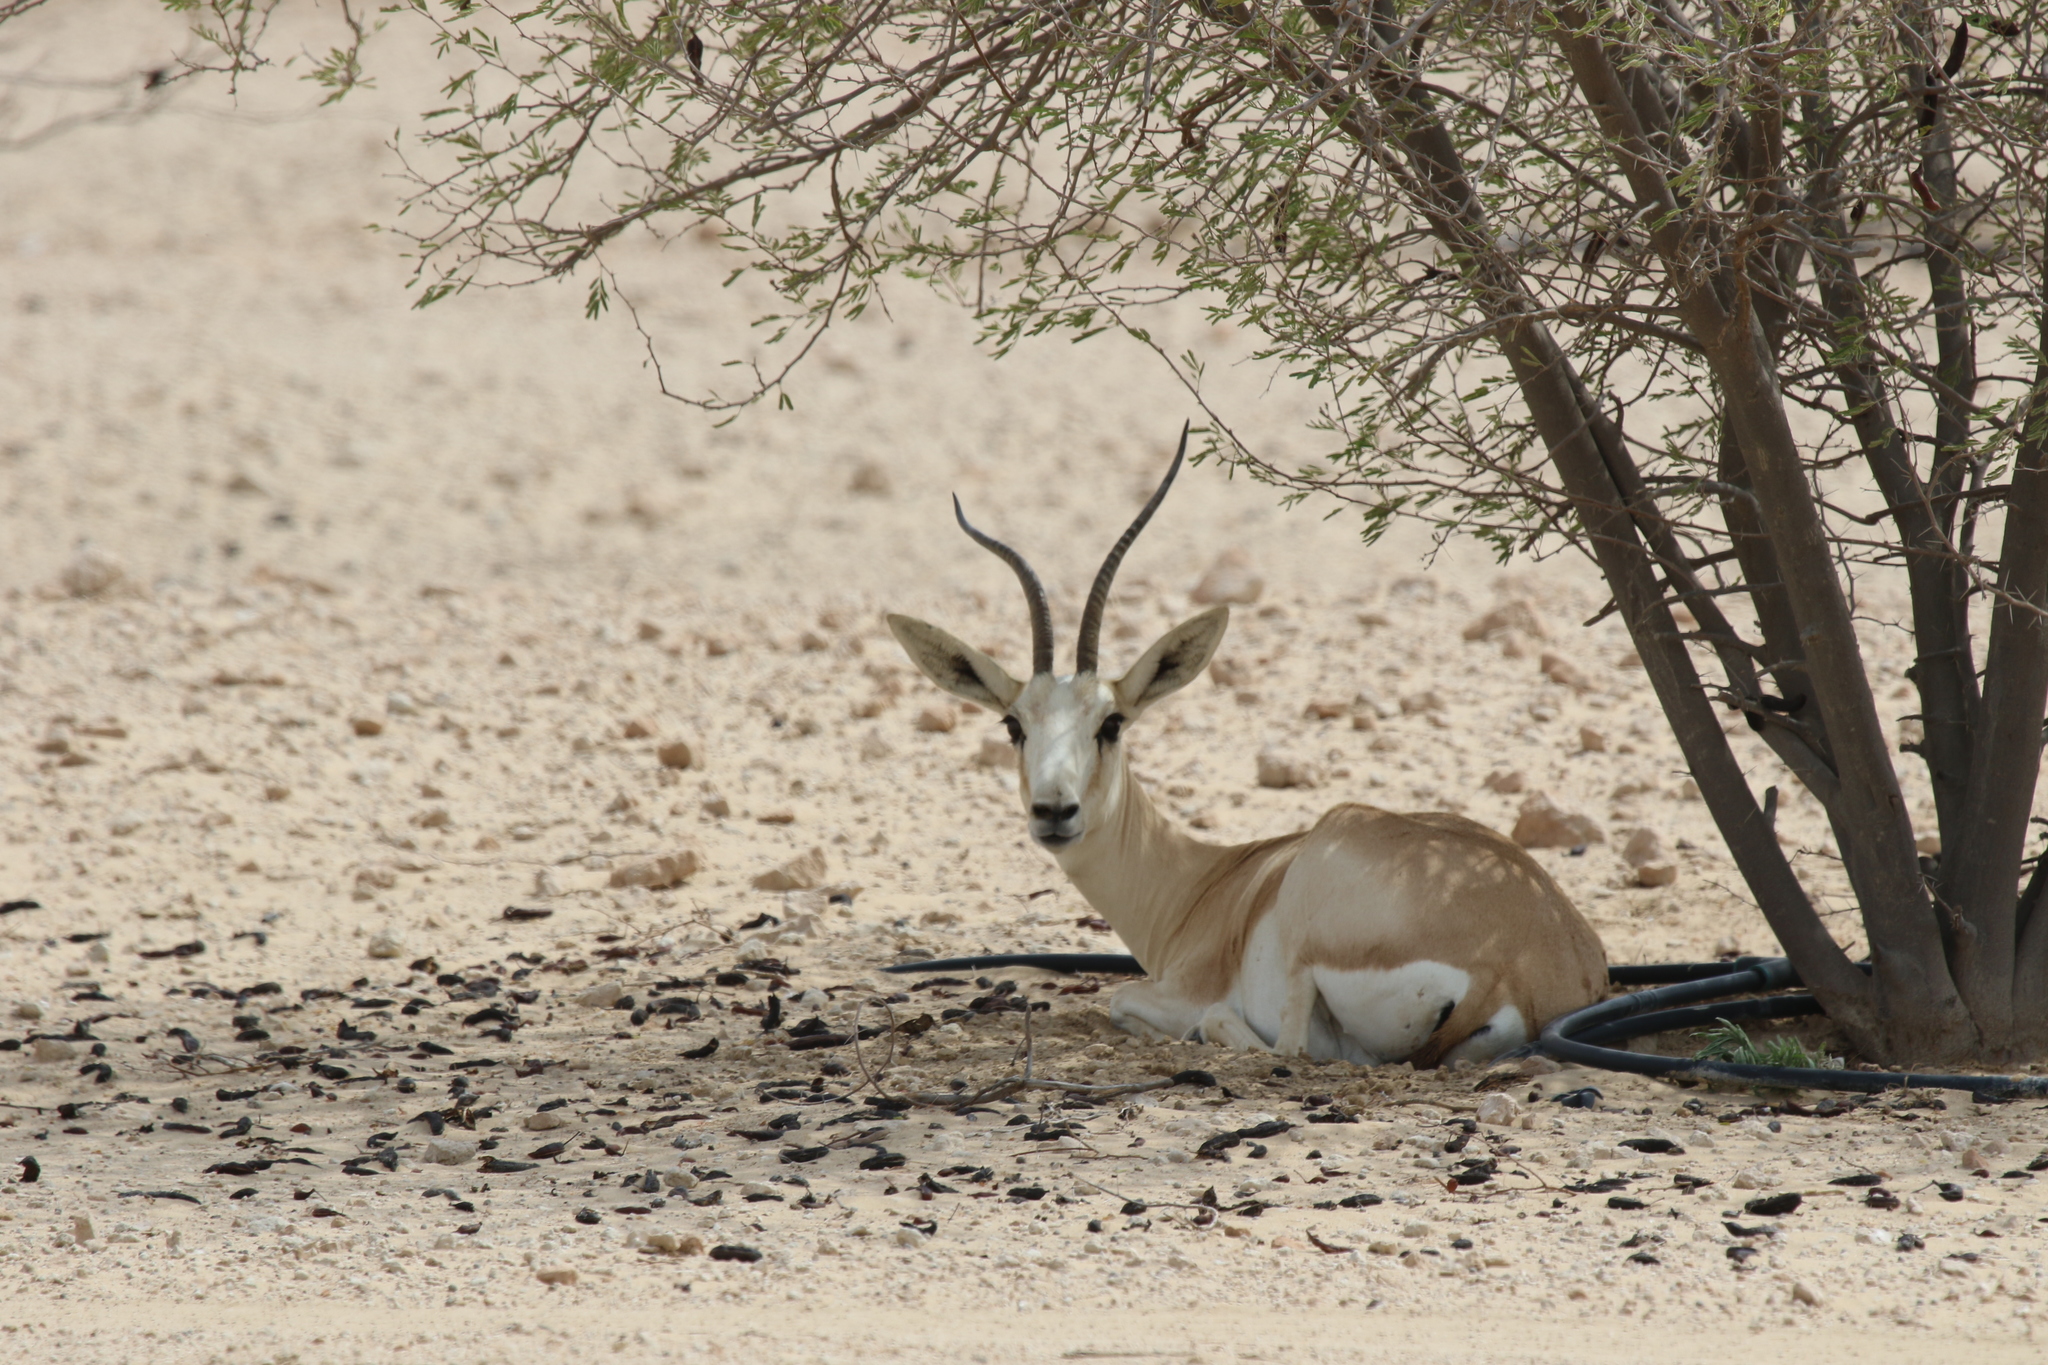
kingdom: Animalia
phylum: Chordata
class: Mammalia
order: Artiodactyla
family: Bovidae
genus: Gazella
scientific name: Gazella marica
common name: Arabian sand gazelle
